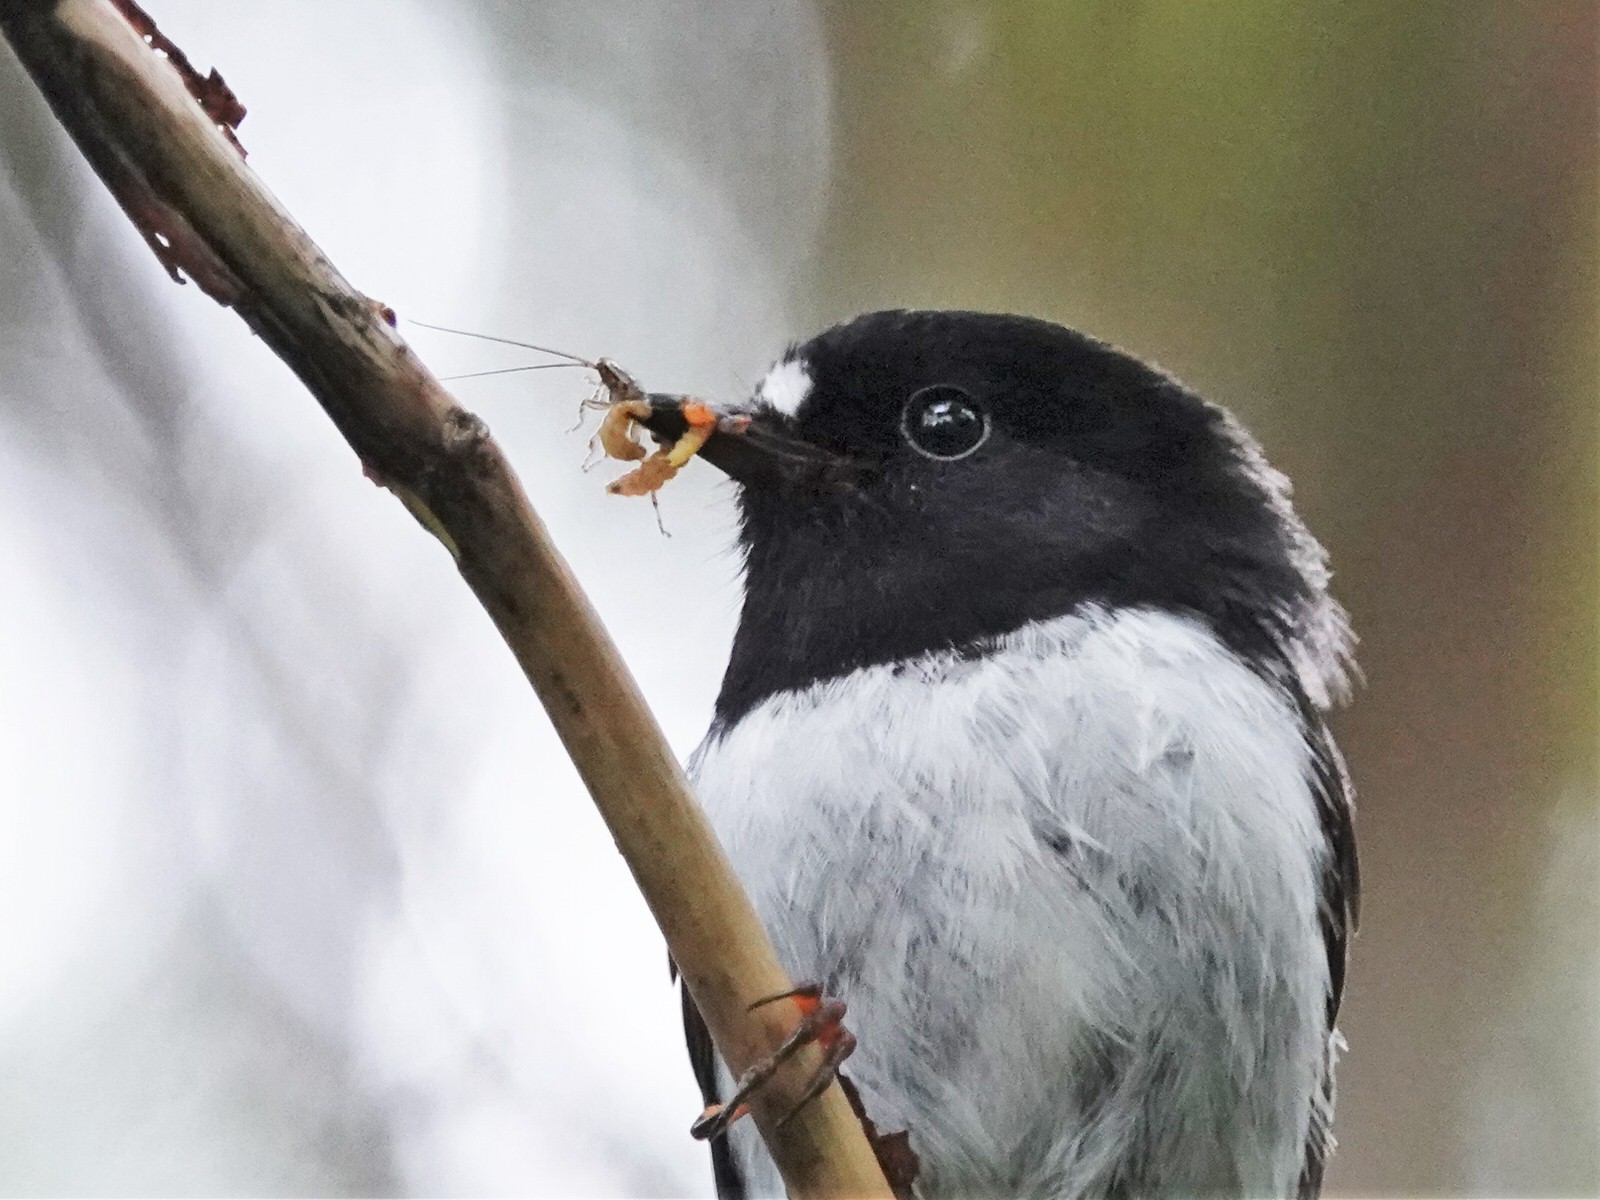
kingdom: Animalia
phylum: Chordata
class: Aves
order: Passeriformes
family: Petroicidae
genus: Petroica
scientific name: Petroica macrocephala
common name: Tomtit
